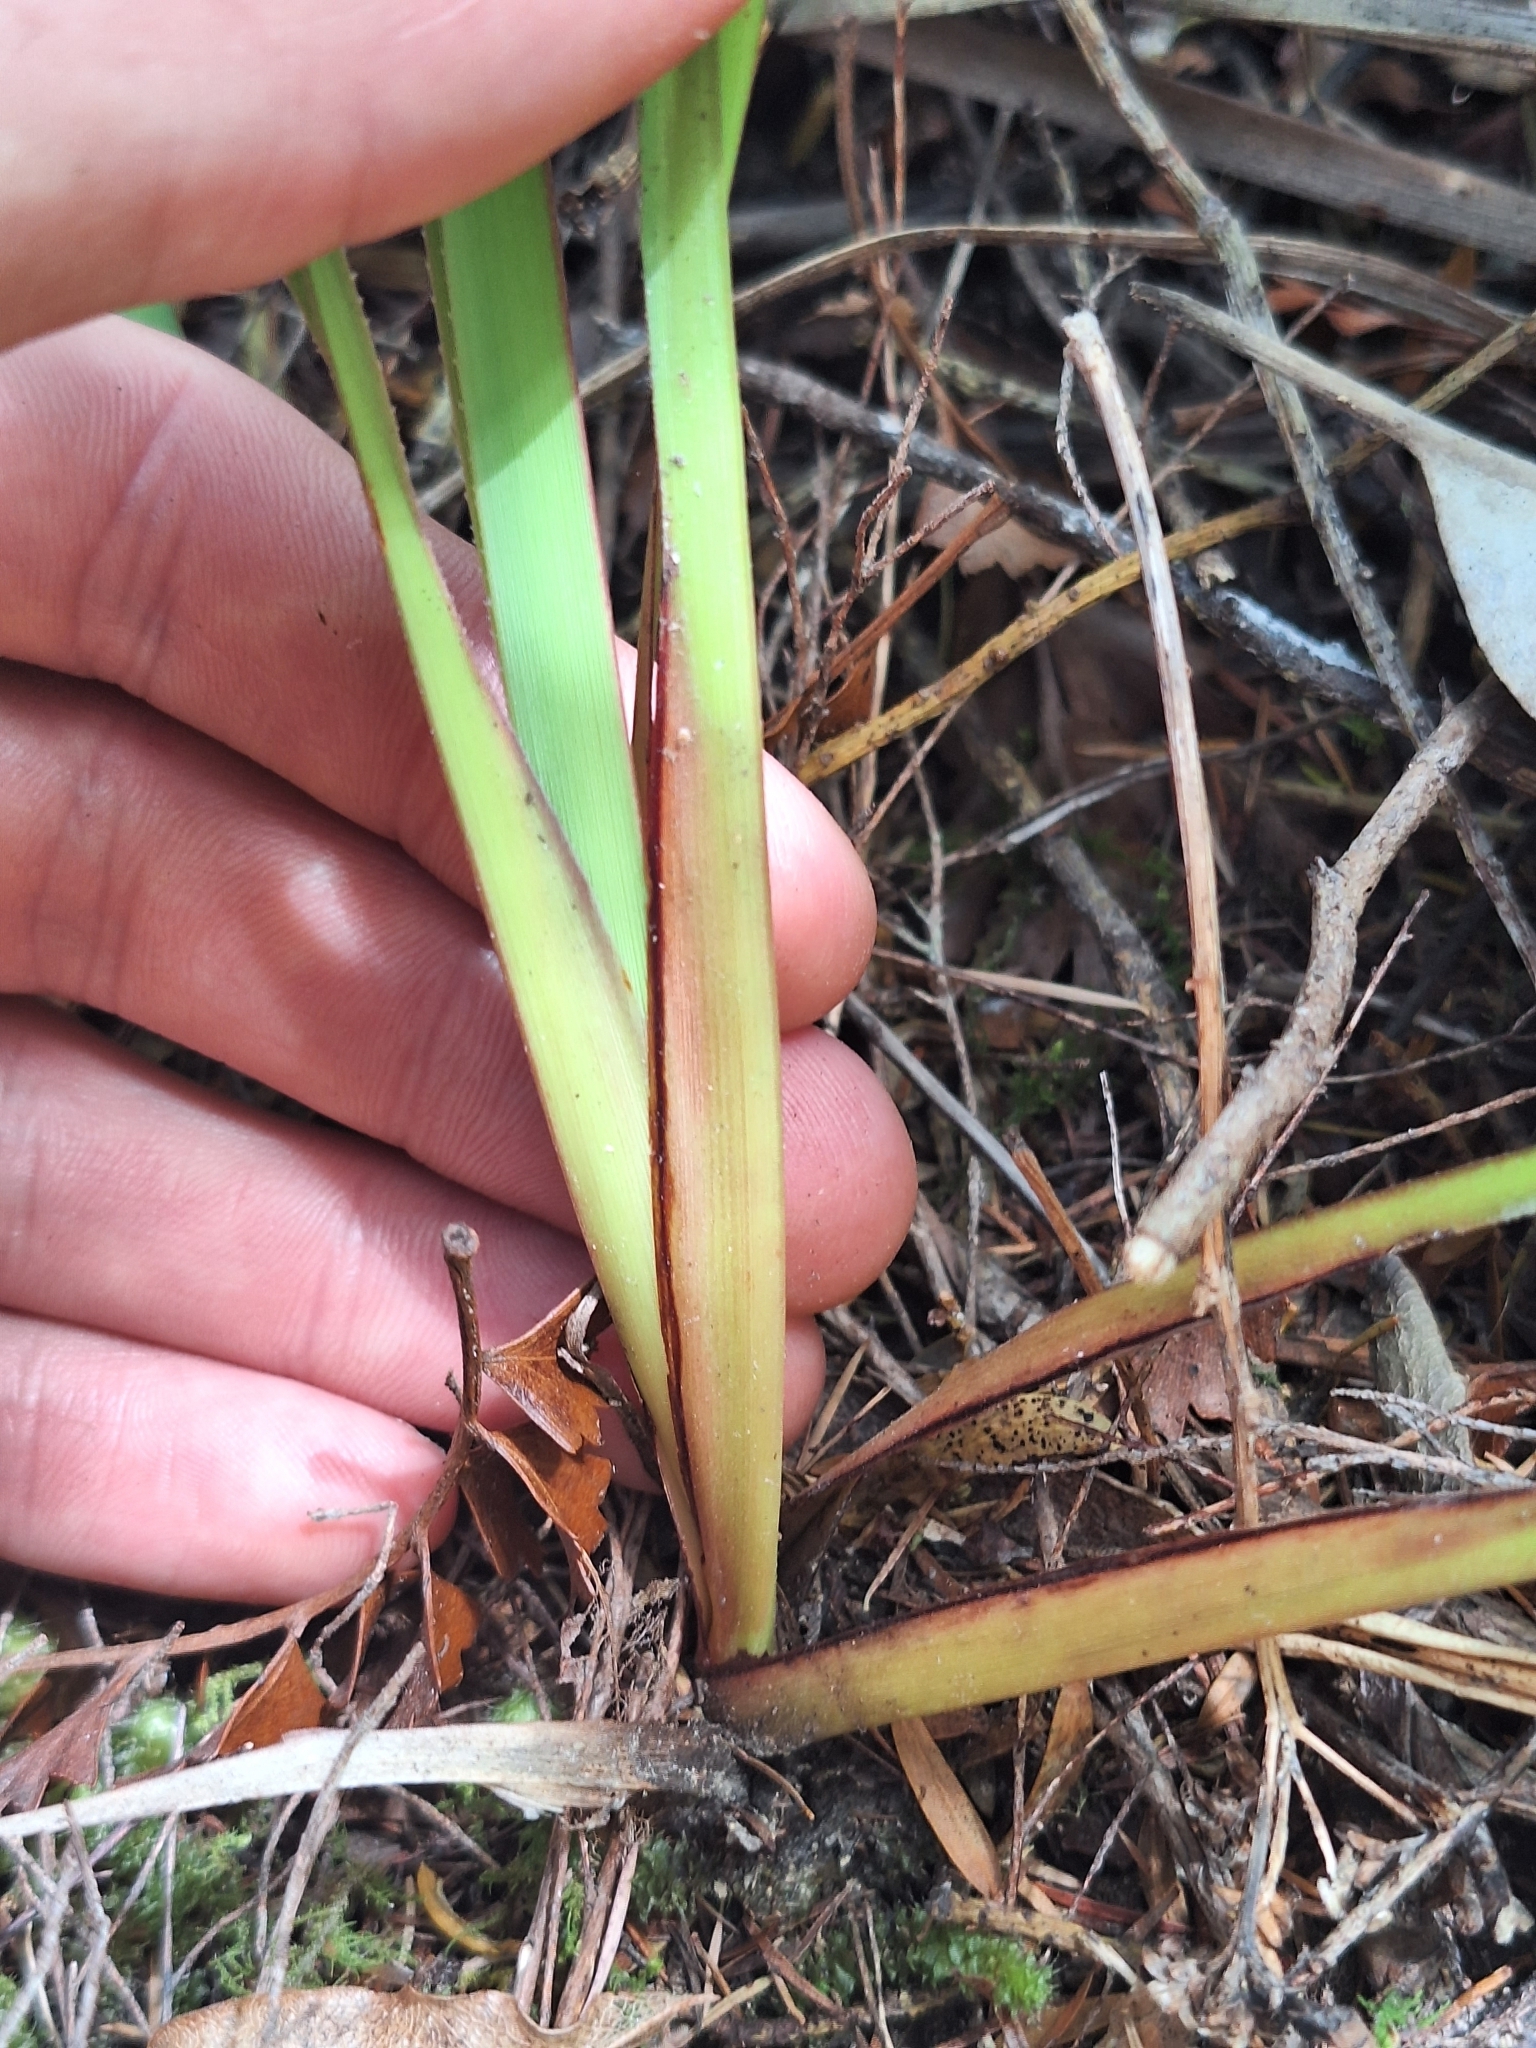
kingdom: Plantae
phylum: Tracheophyta
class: Liliopsida
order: Asparagales
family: Asphodelaceae
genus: Dianella
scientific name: Dianella nigra
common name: New zealand-blueberry
